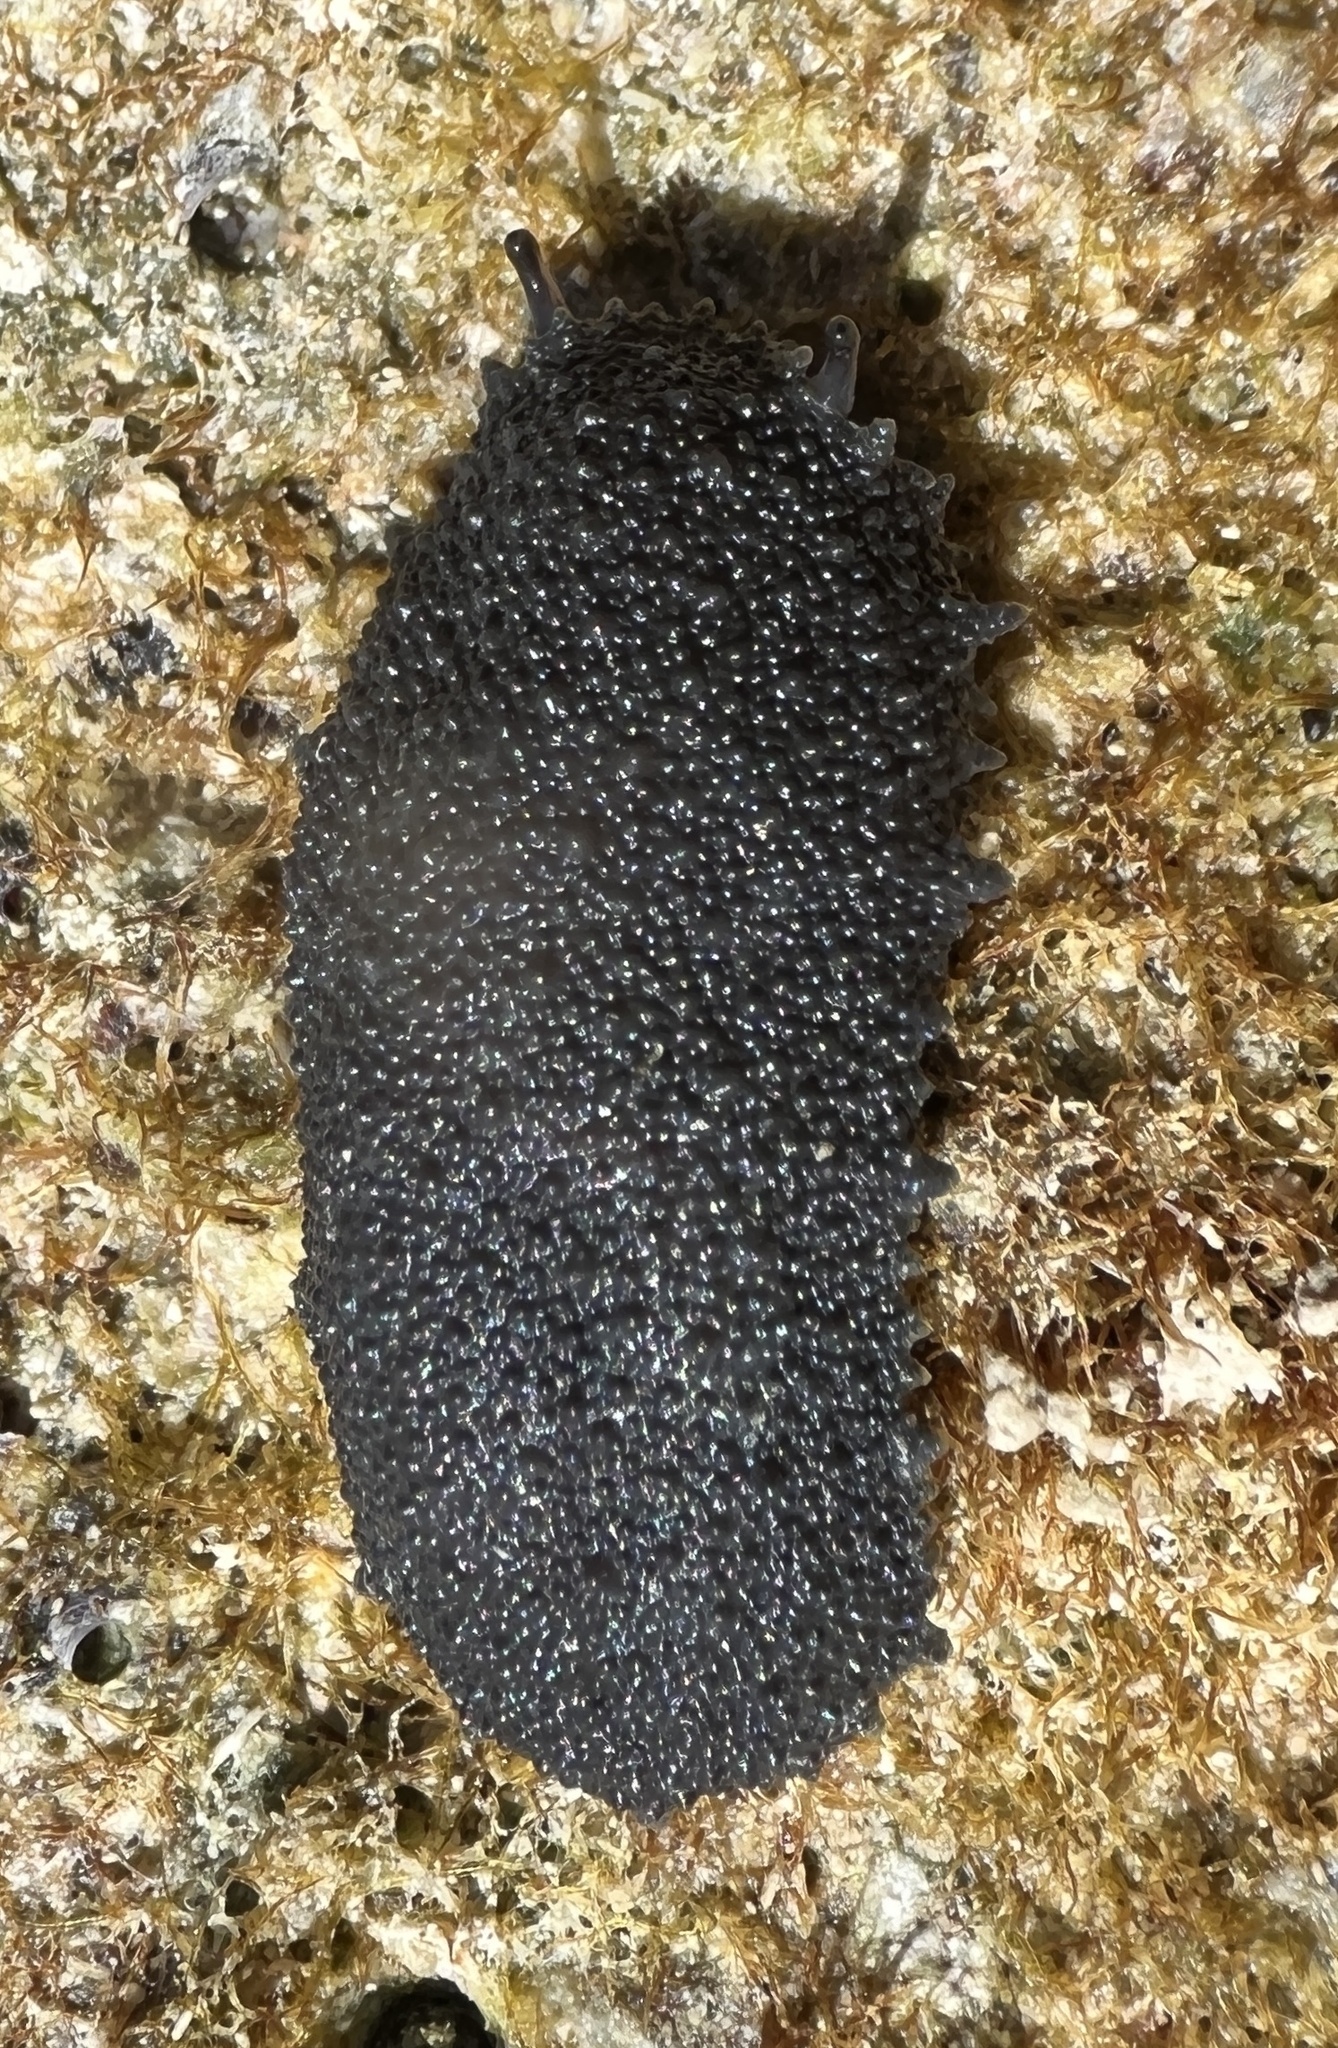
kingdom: Animalia
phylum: Mollusca
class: Gastropoda
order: Systellommatophora
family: Onchidiidae
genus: Onchidella
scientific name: Onchidella floridana
